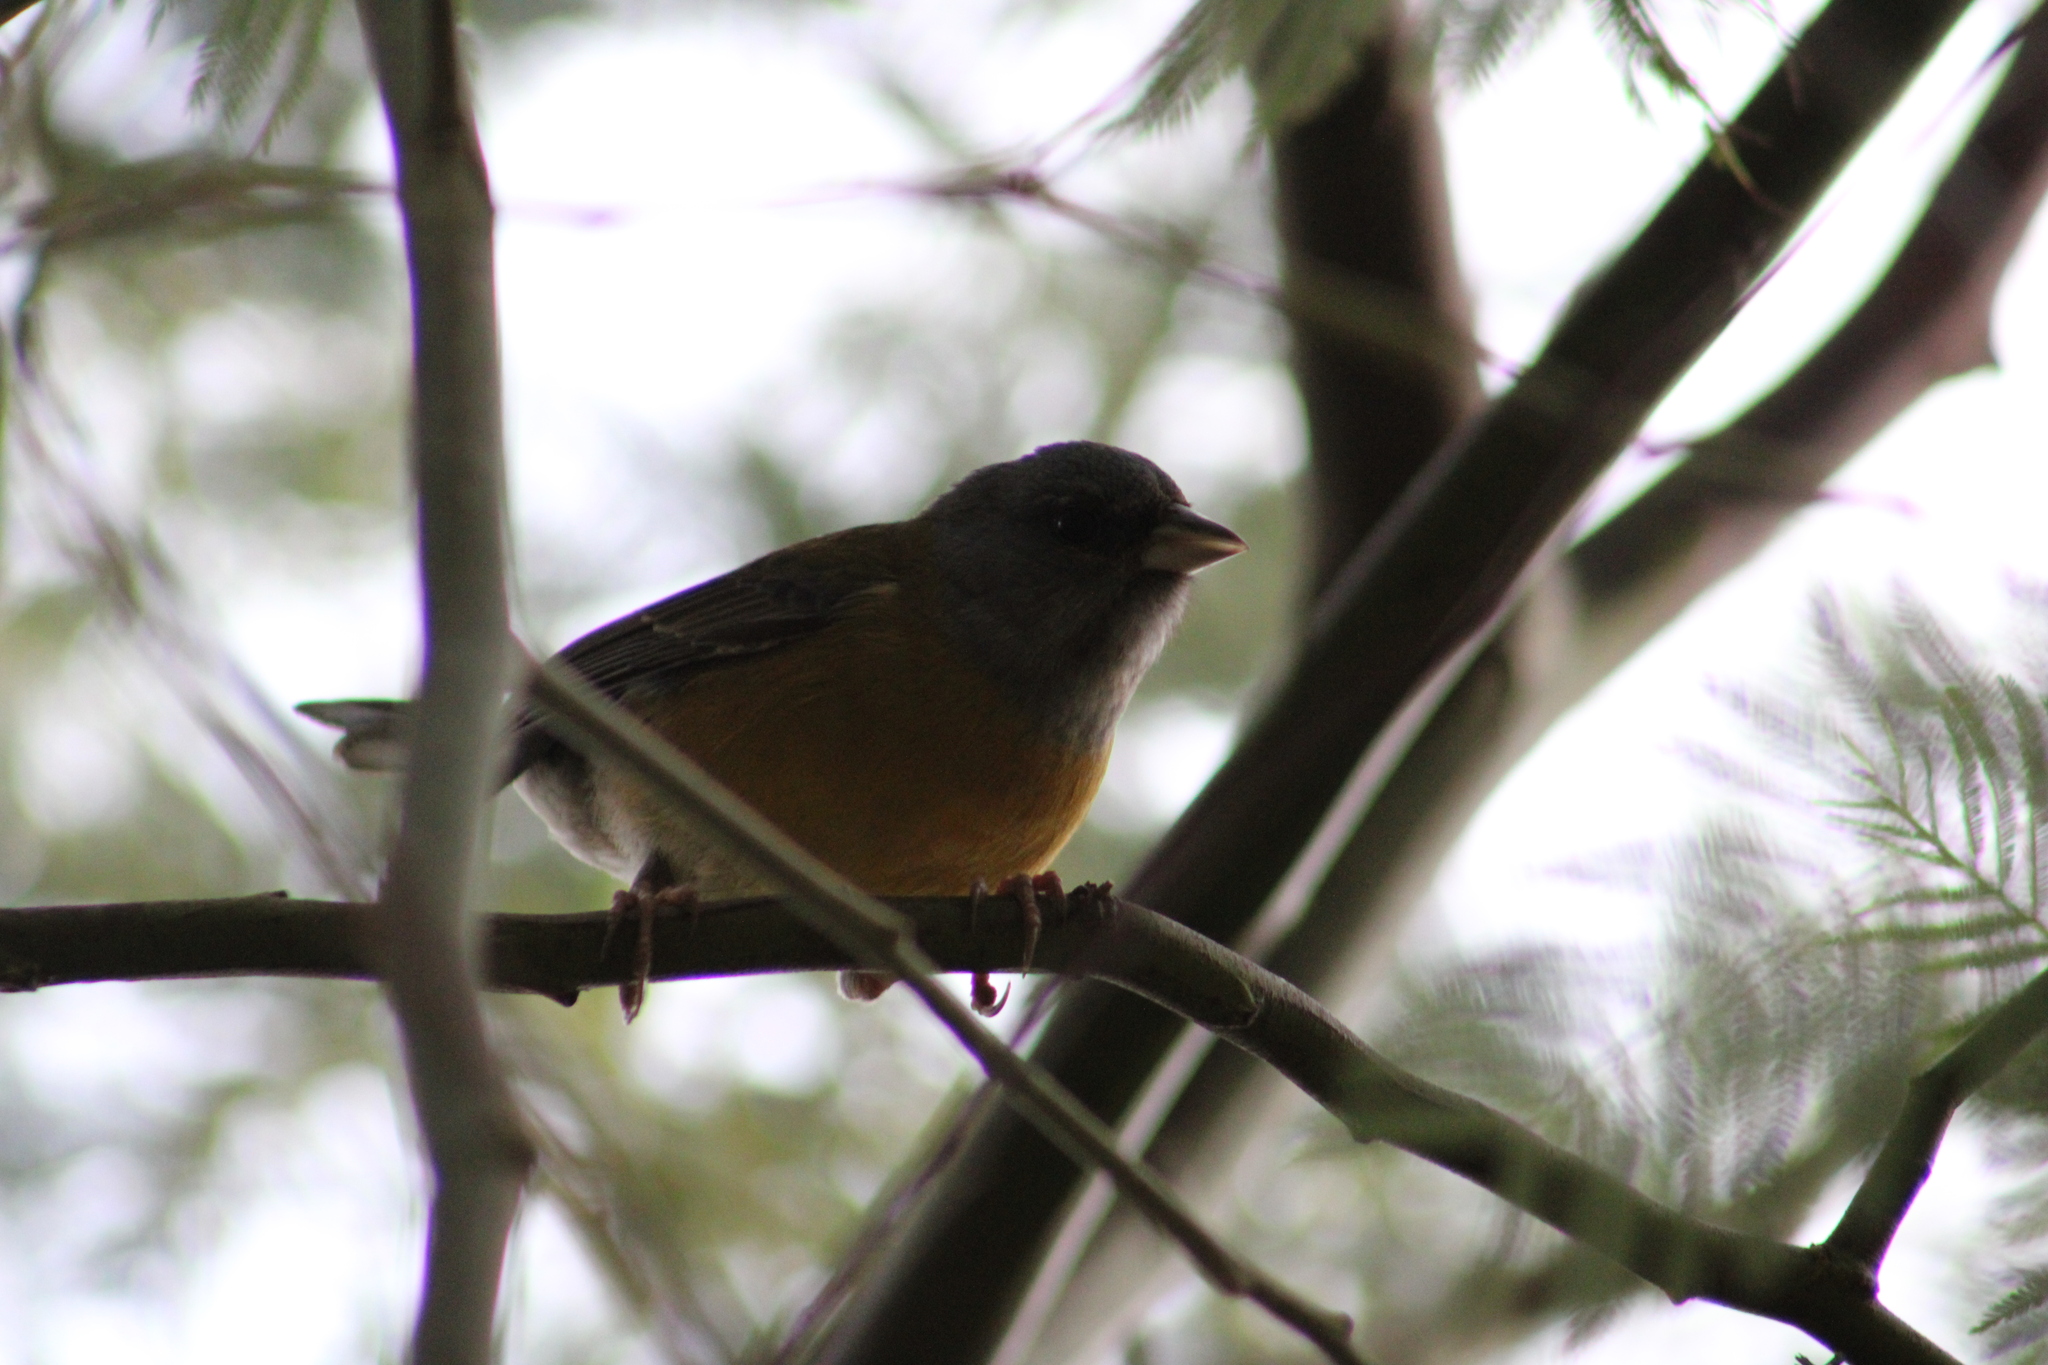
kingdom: Animalia
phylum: Chordata
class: Aves
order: Passeriformes
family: Thraupidae
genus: Phrygilus
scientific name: Phrygilus patagonicus
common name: Patagonian sierra finch
